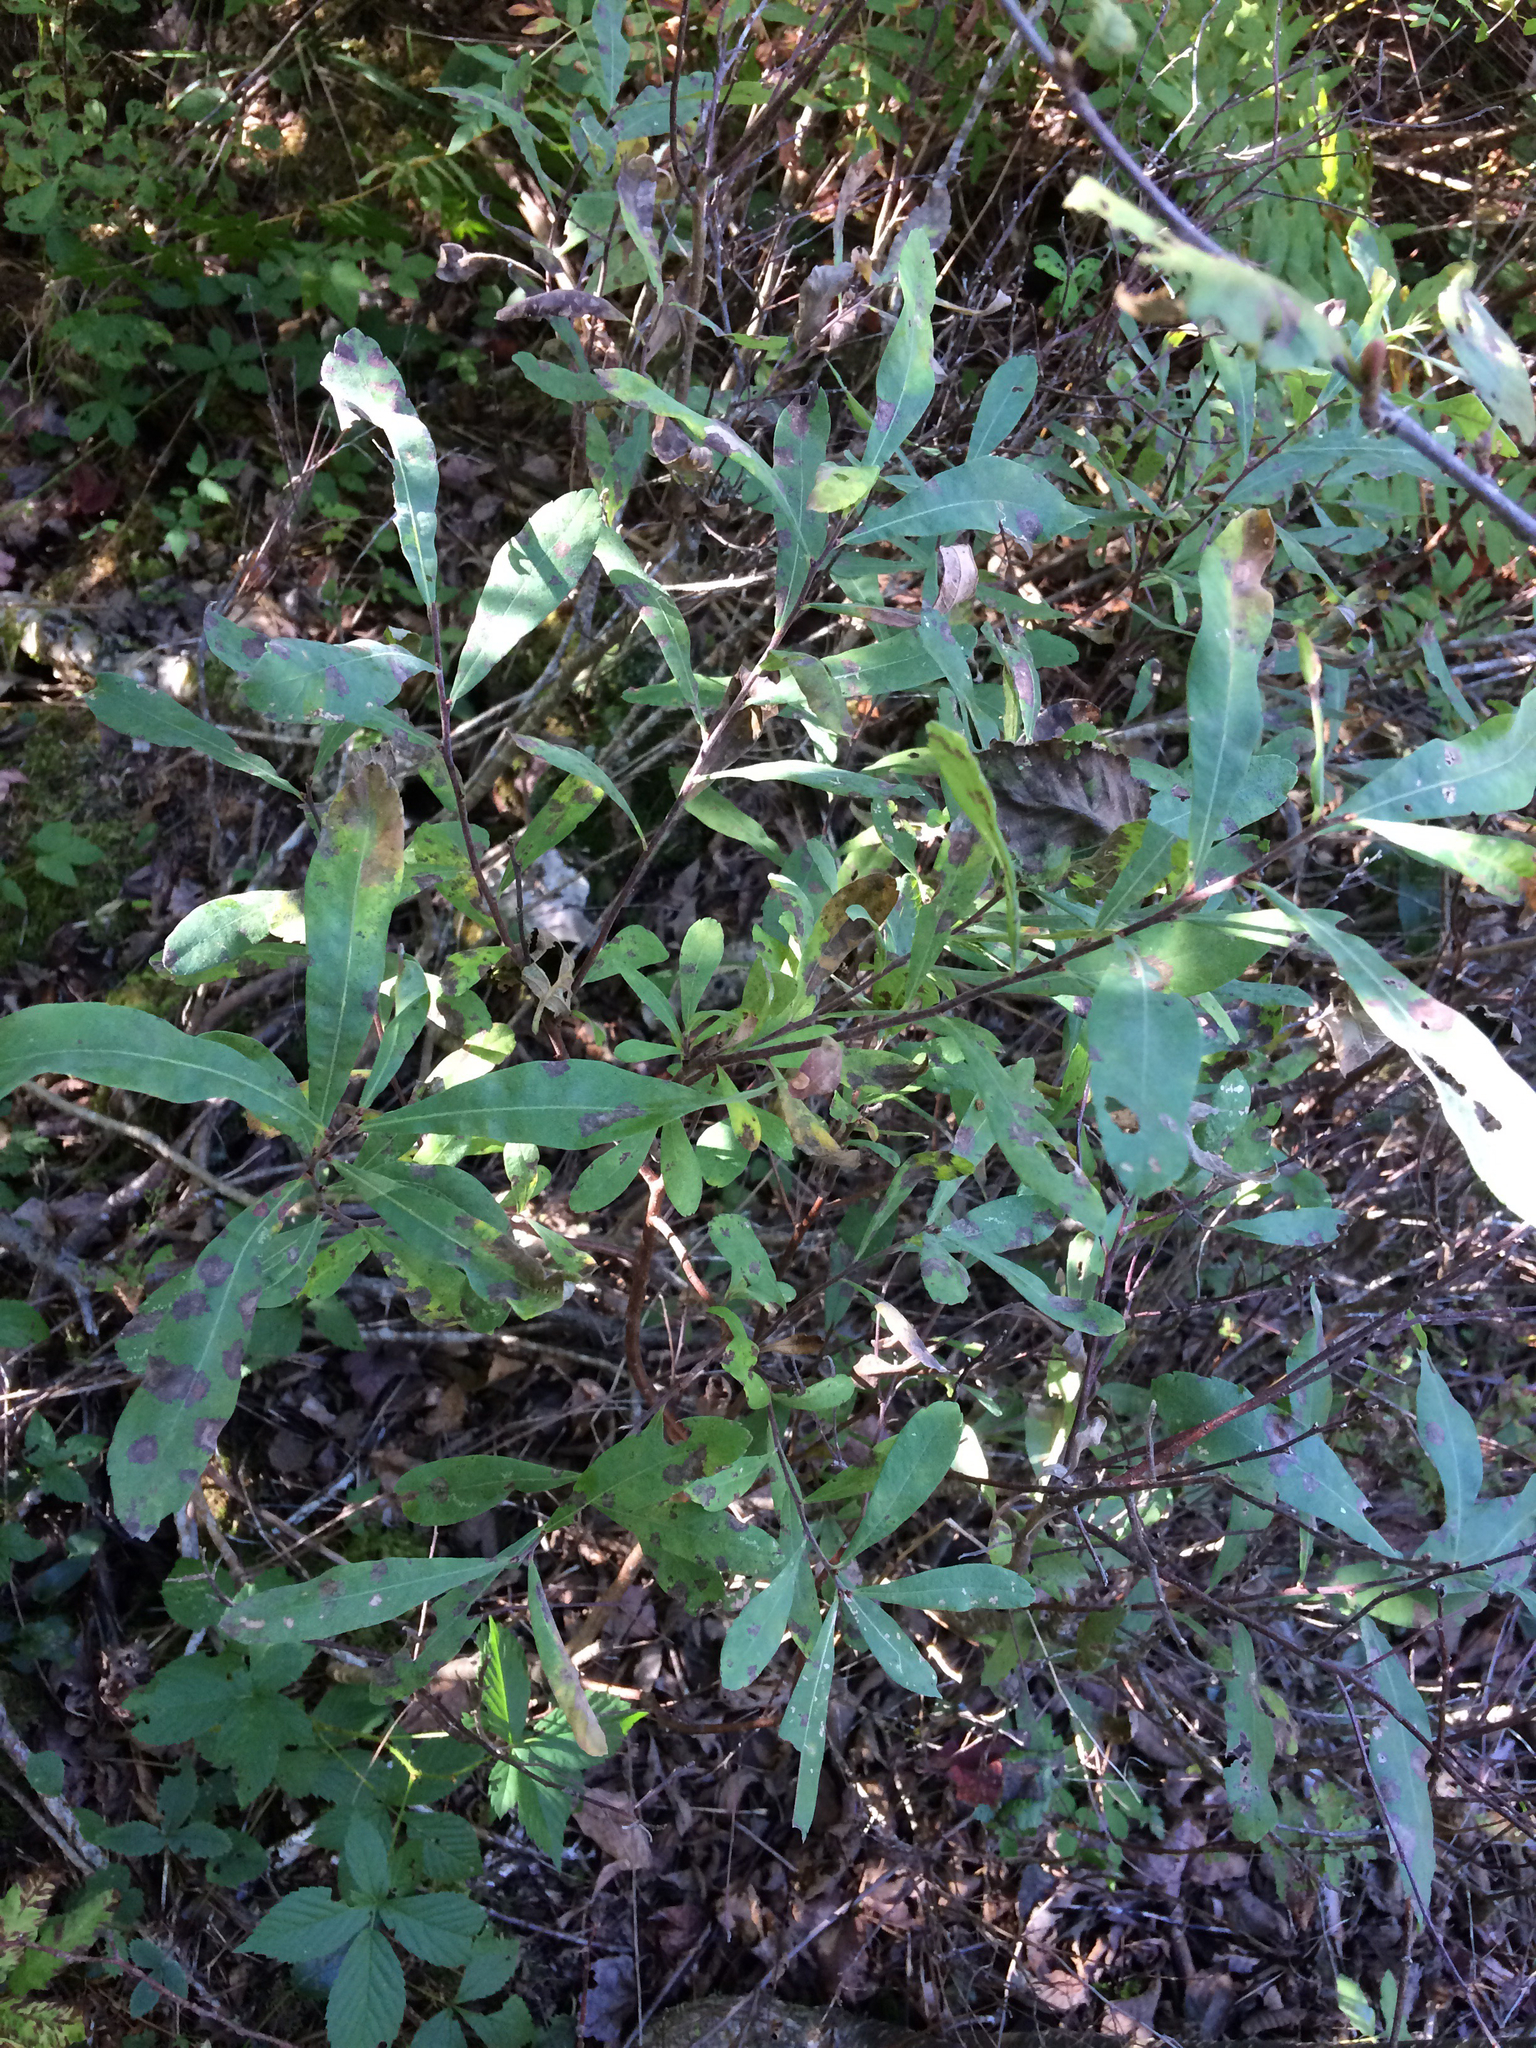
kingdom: Plantae
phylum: Tracheophyta
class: Magnoliopsida
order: Fagales
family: Myricaceae
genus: Myrica
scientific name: Myrica gale
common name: Sweet gale
